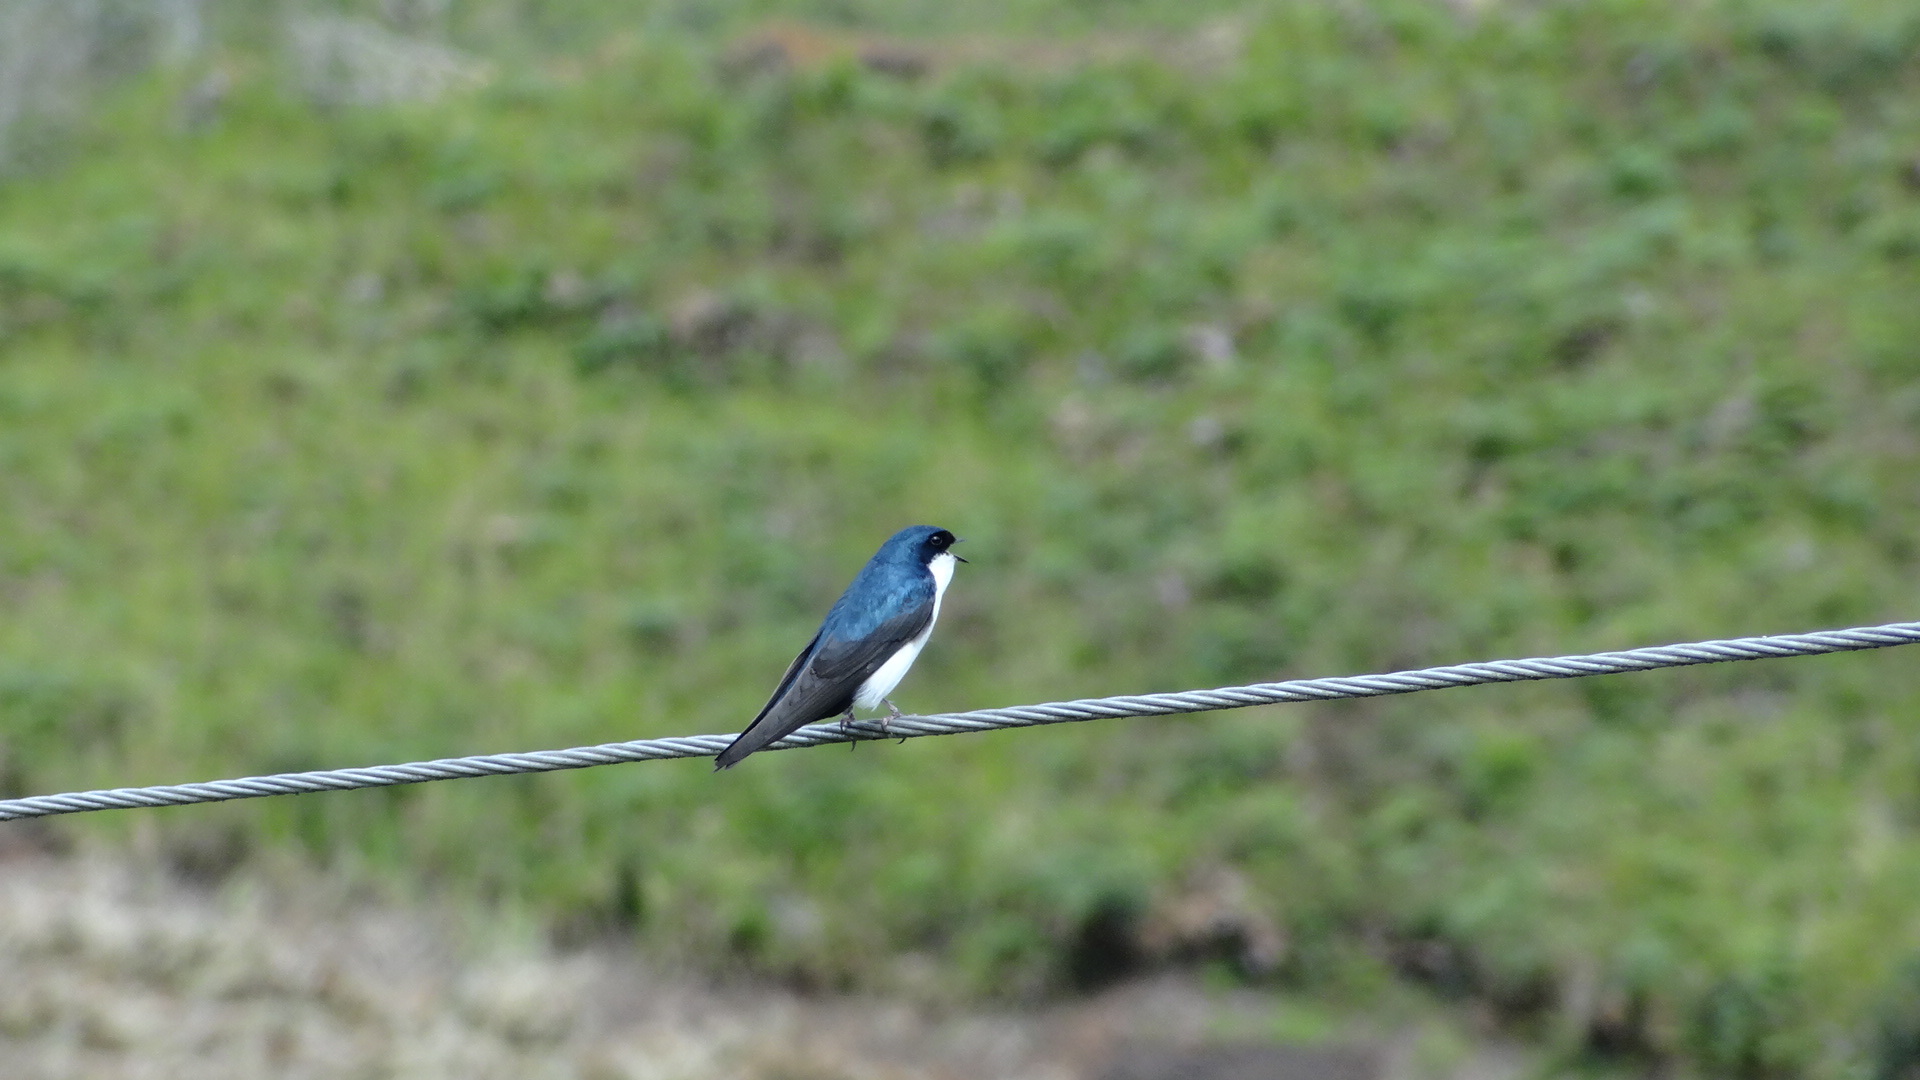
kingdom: Animalia
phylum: Chordata
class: Aves
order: Passeriformes
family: Hirundinidae
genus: Notiochelidon
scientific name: Notiochelidon cyanoleuca
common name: Blue-and-white swallow
